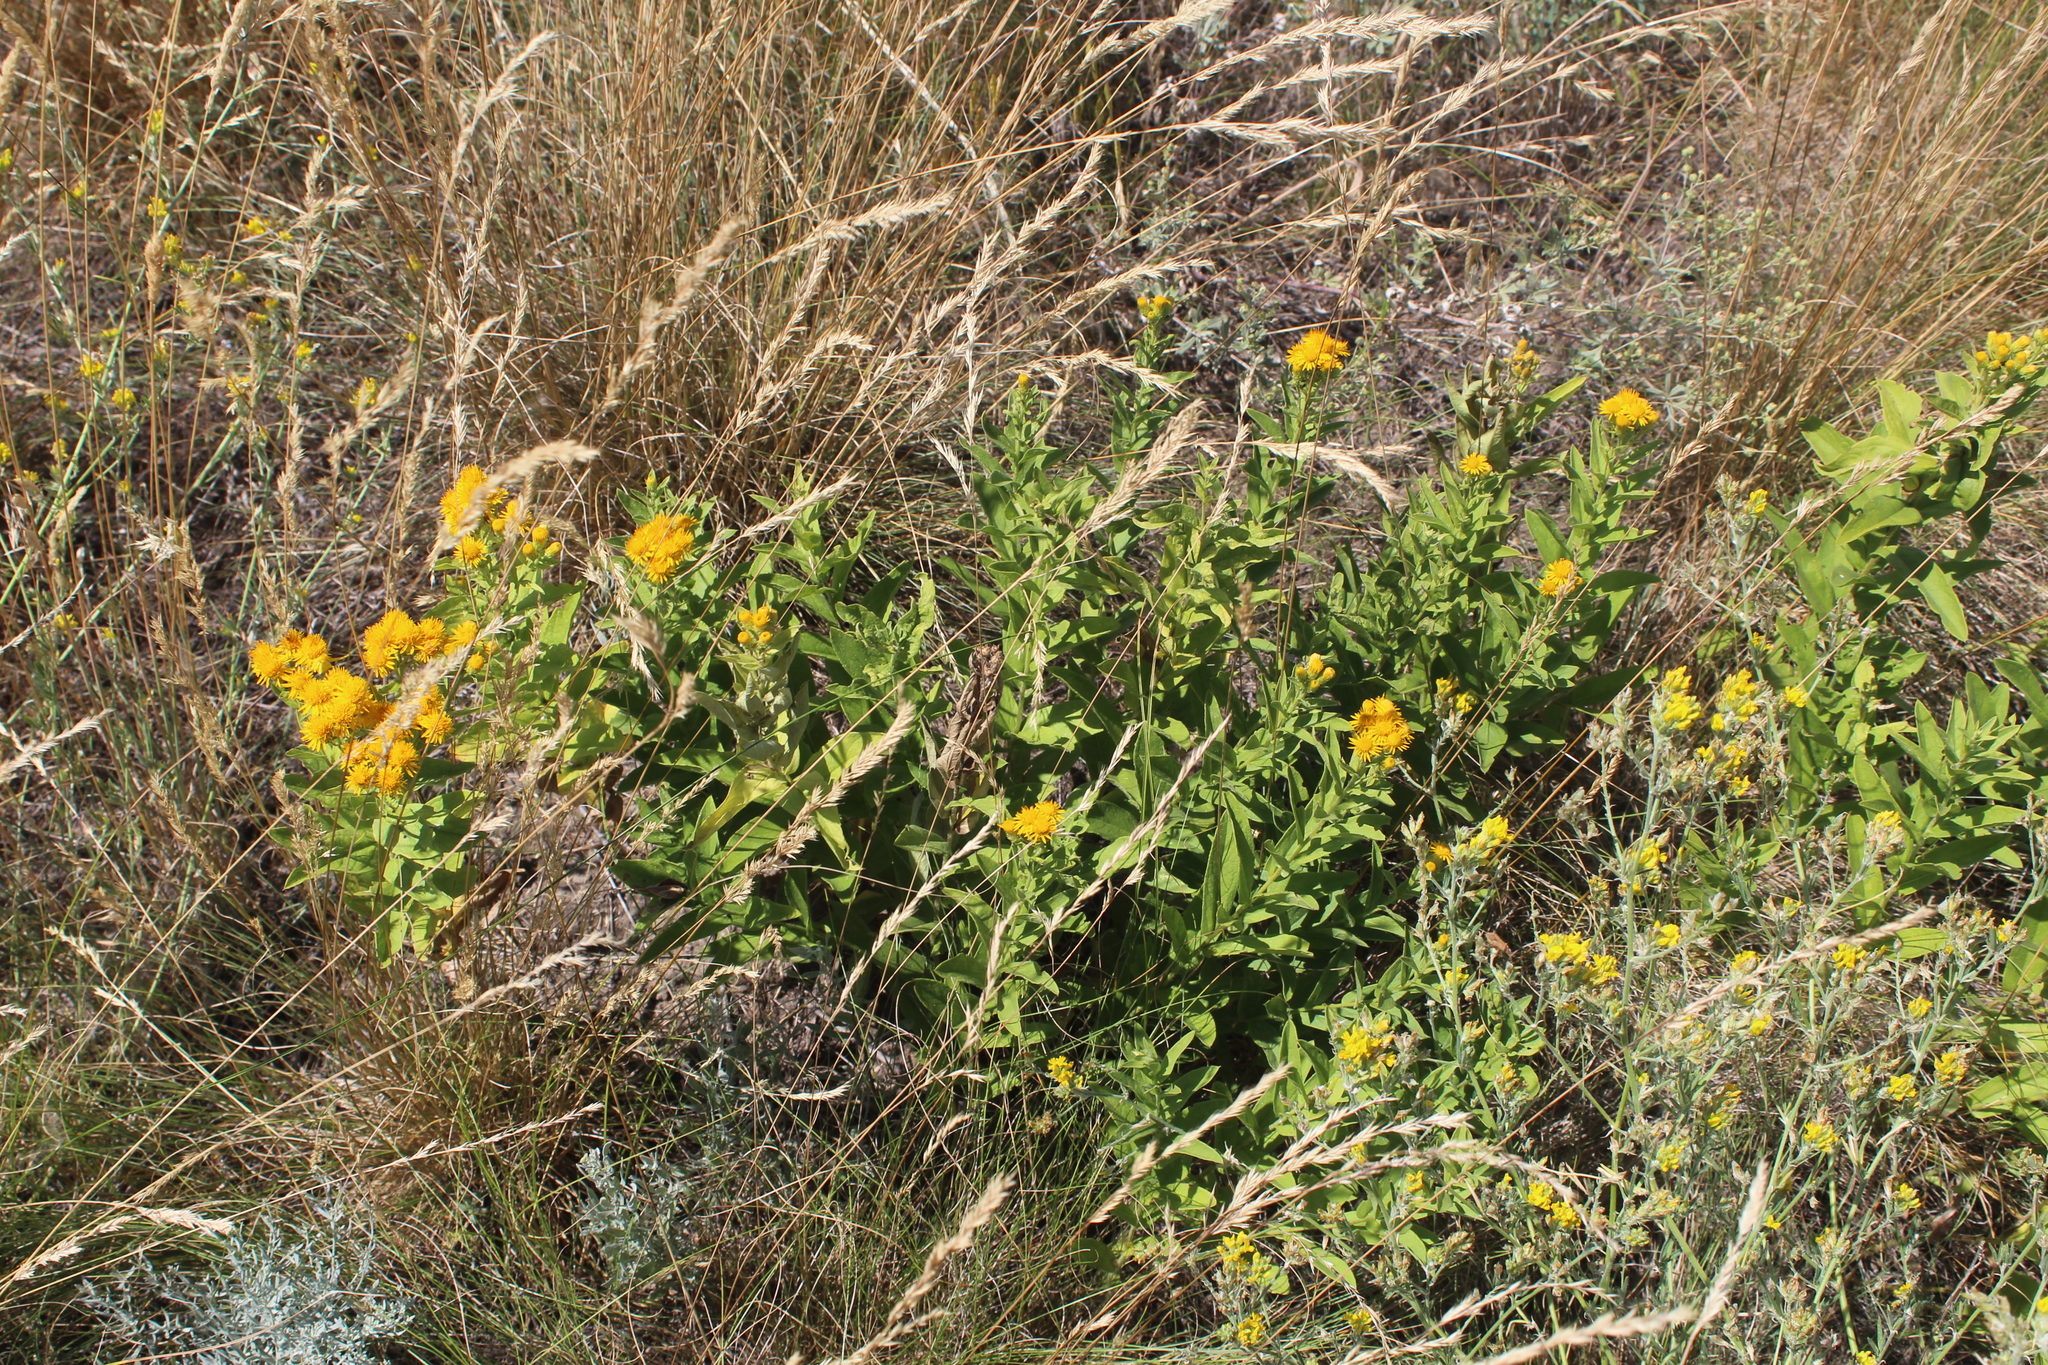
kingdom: Plantae
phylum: Tracheophyta
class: Magnoliopsida
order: Asterales
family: Asteraceae
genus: Pentanema
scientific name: Pentanema germanicum
